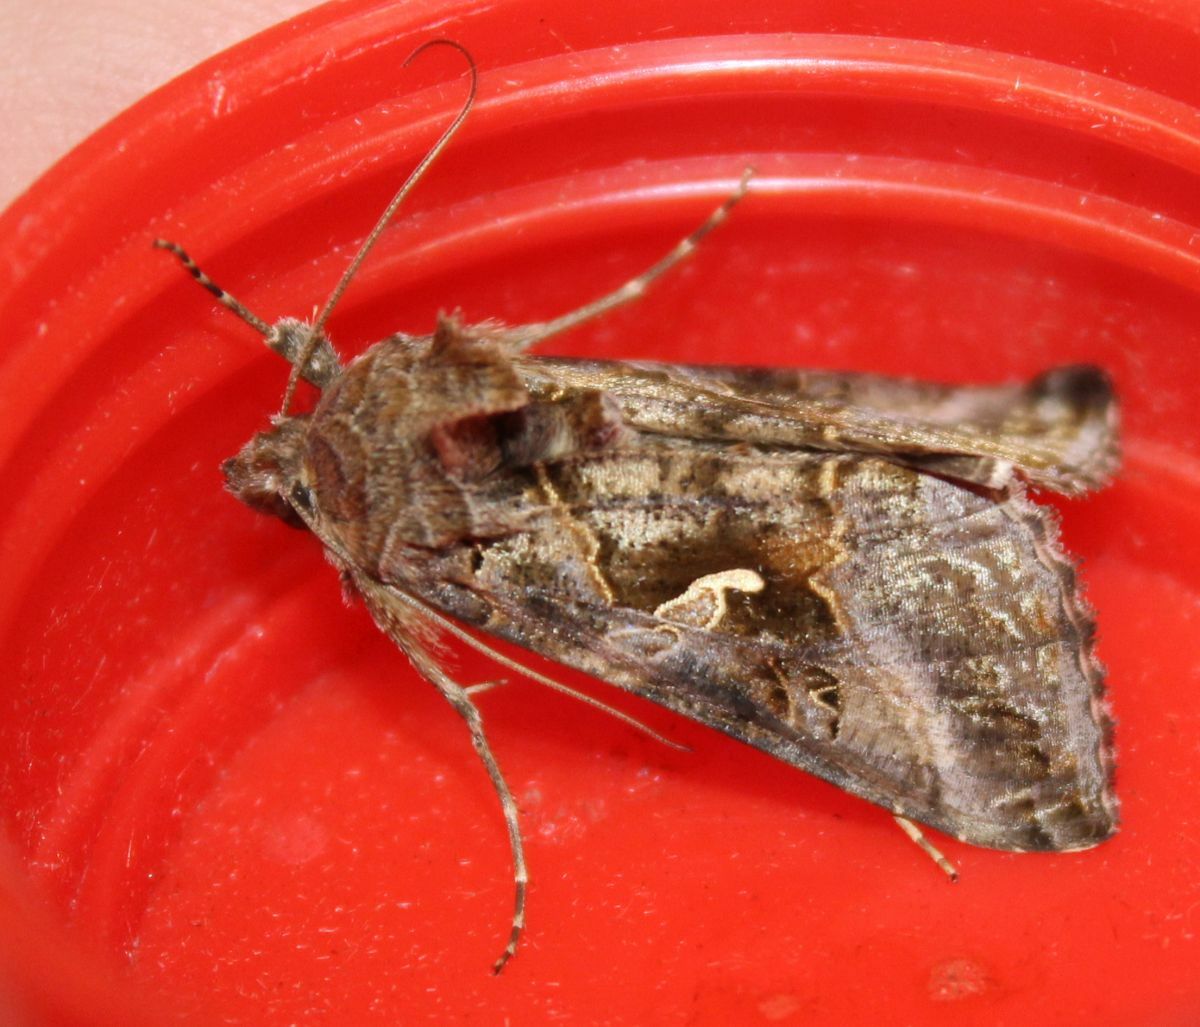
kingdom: Animalia
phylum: Arthropoda
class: Insecta
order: Lepidoptera
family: Noctuidae
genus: Autographa
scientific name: Autographa gamma
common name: Silver y
